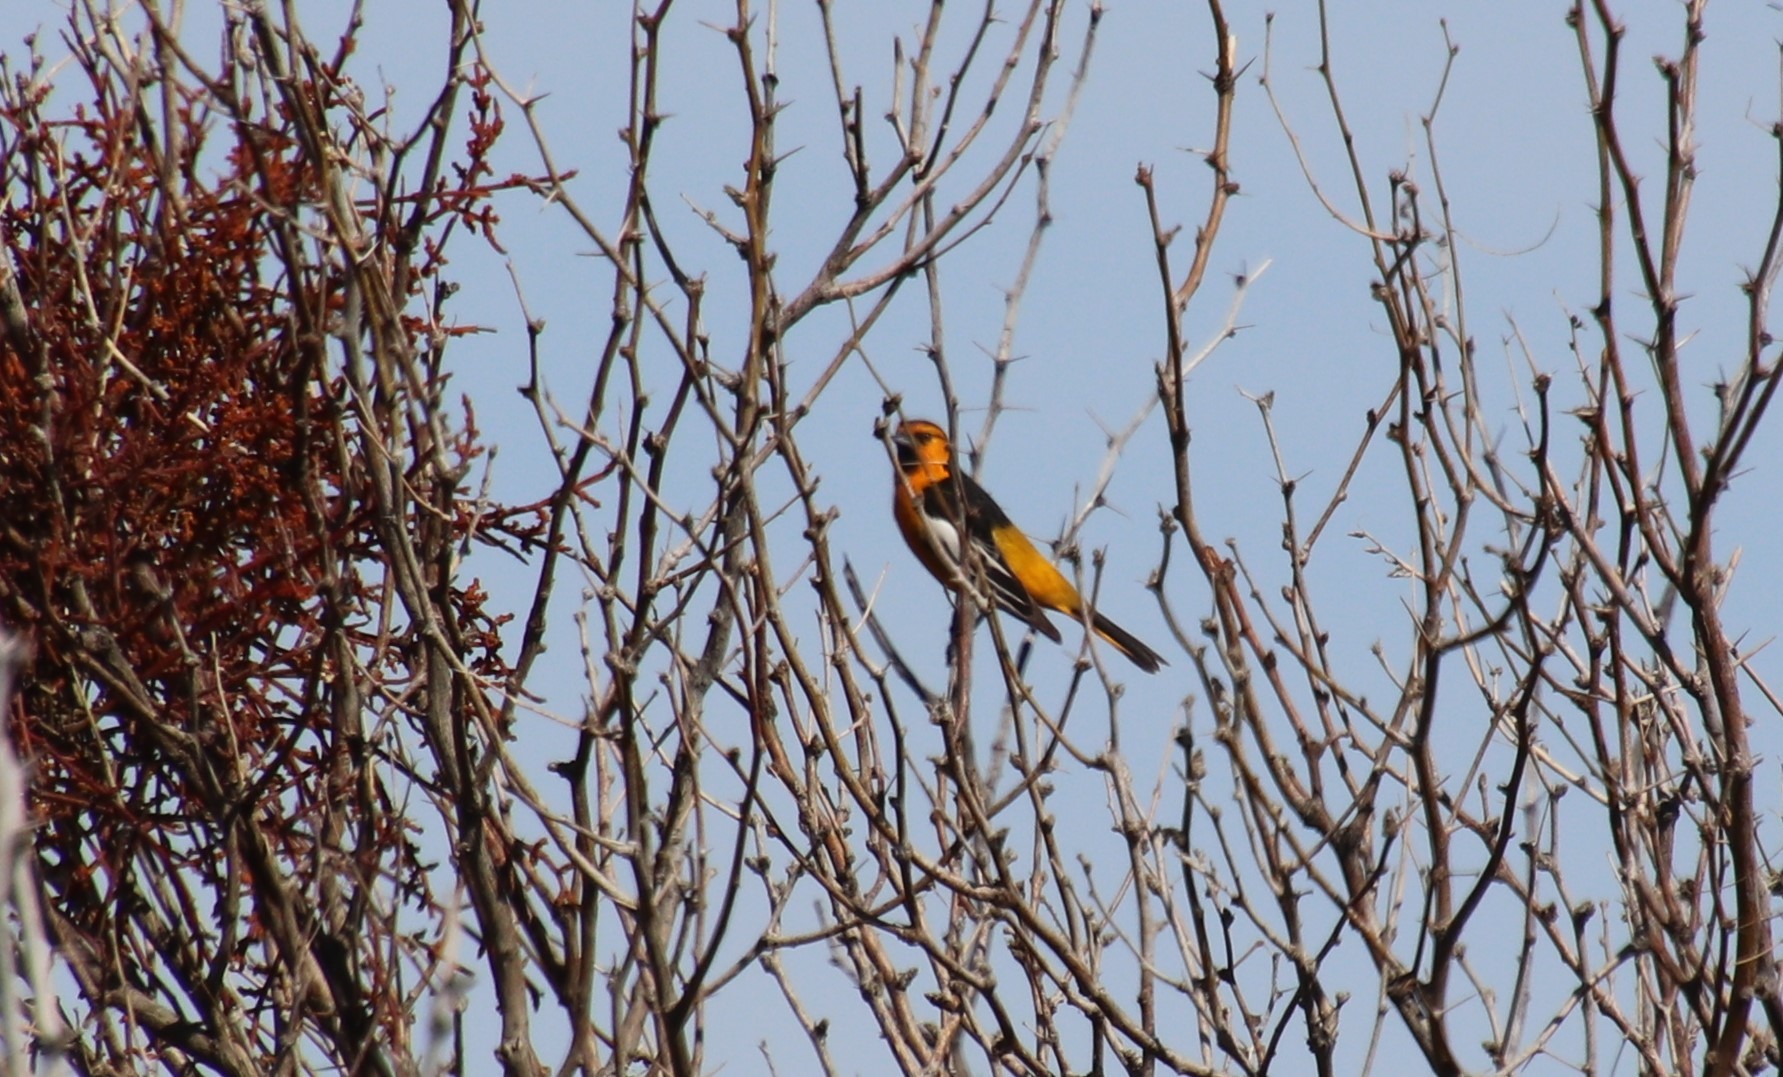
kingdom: Animalia
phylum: Chordata
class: Aves
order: Passeriformes
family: Icteridae
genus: Icterus
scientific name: Icterus bullockii
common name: Bullock's oriole
